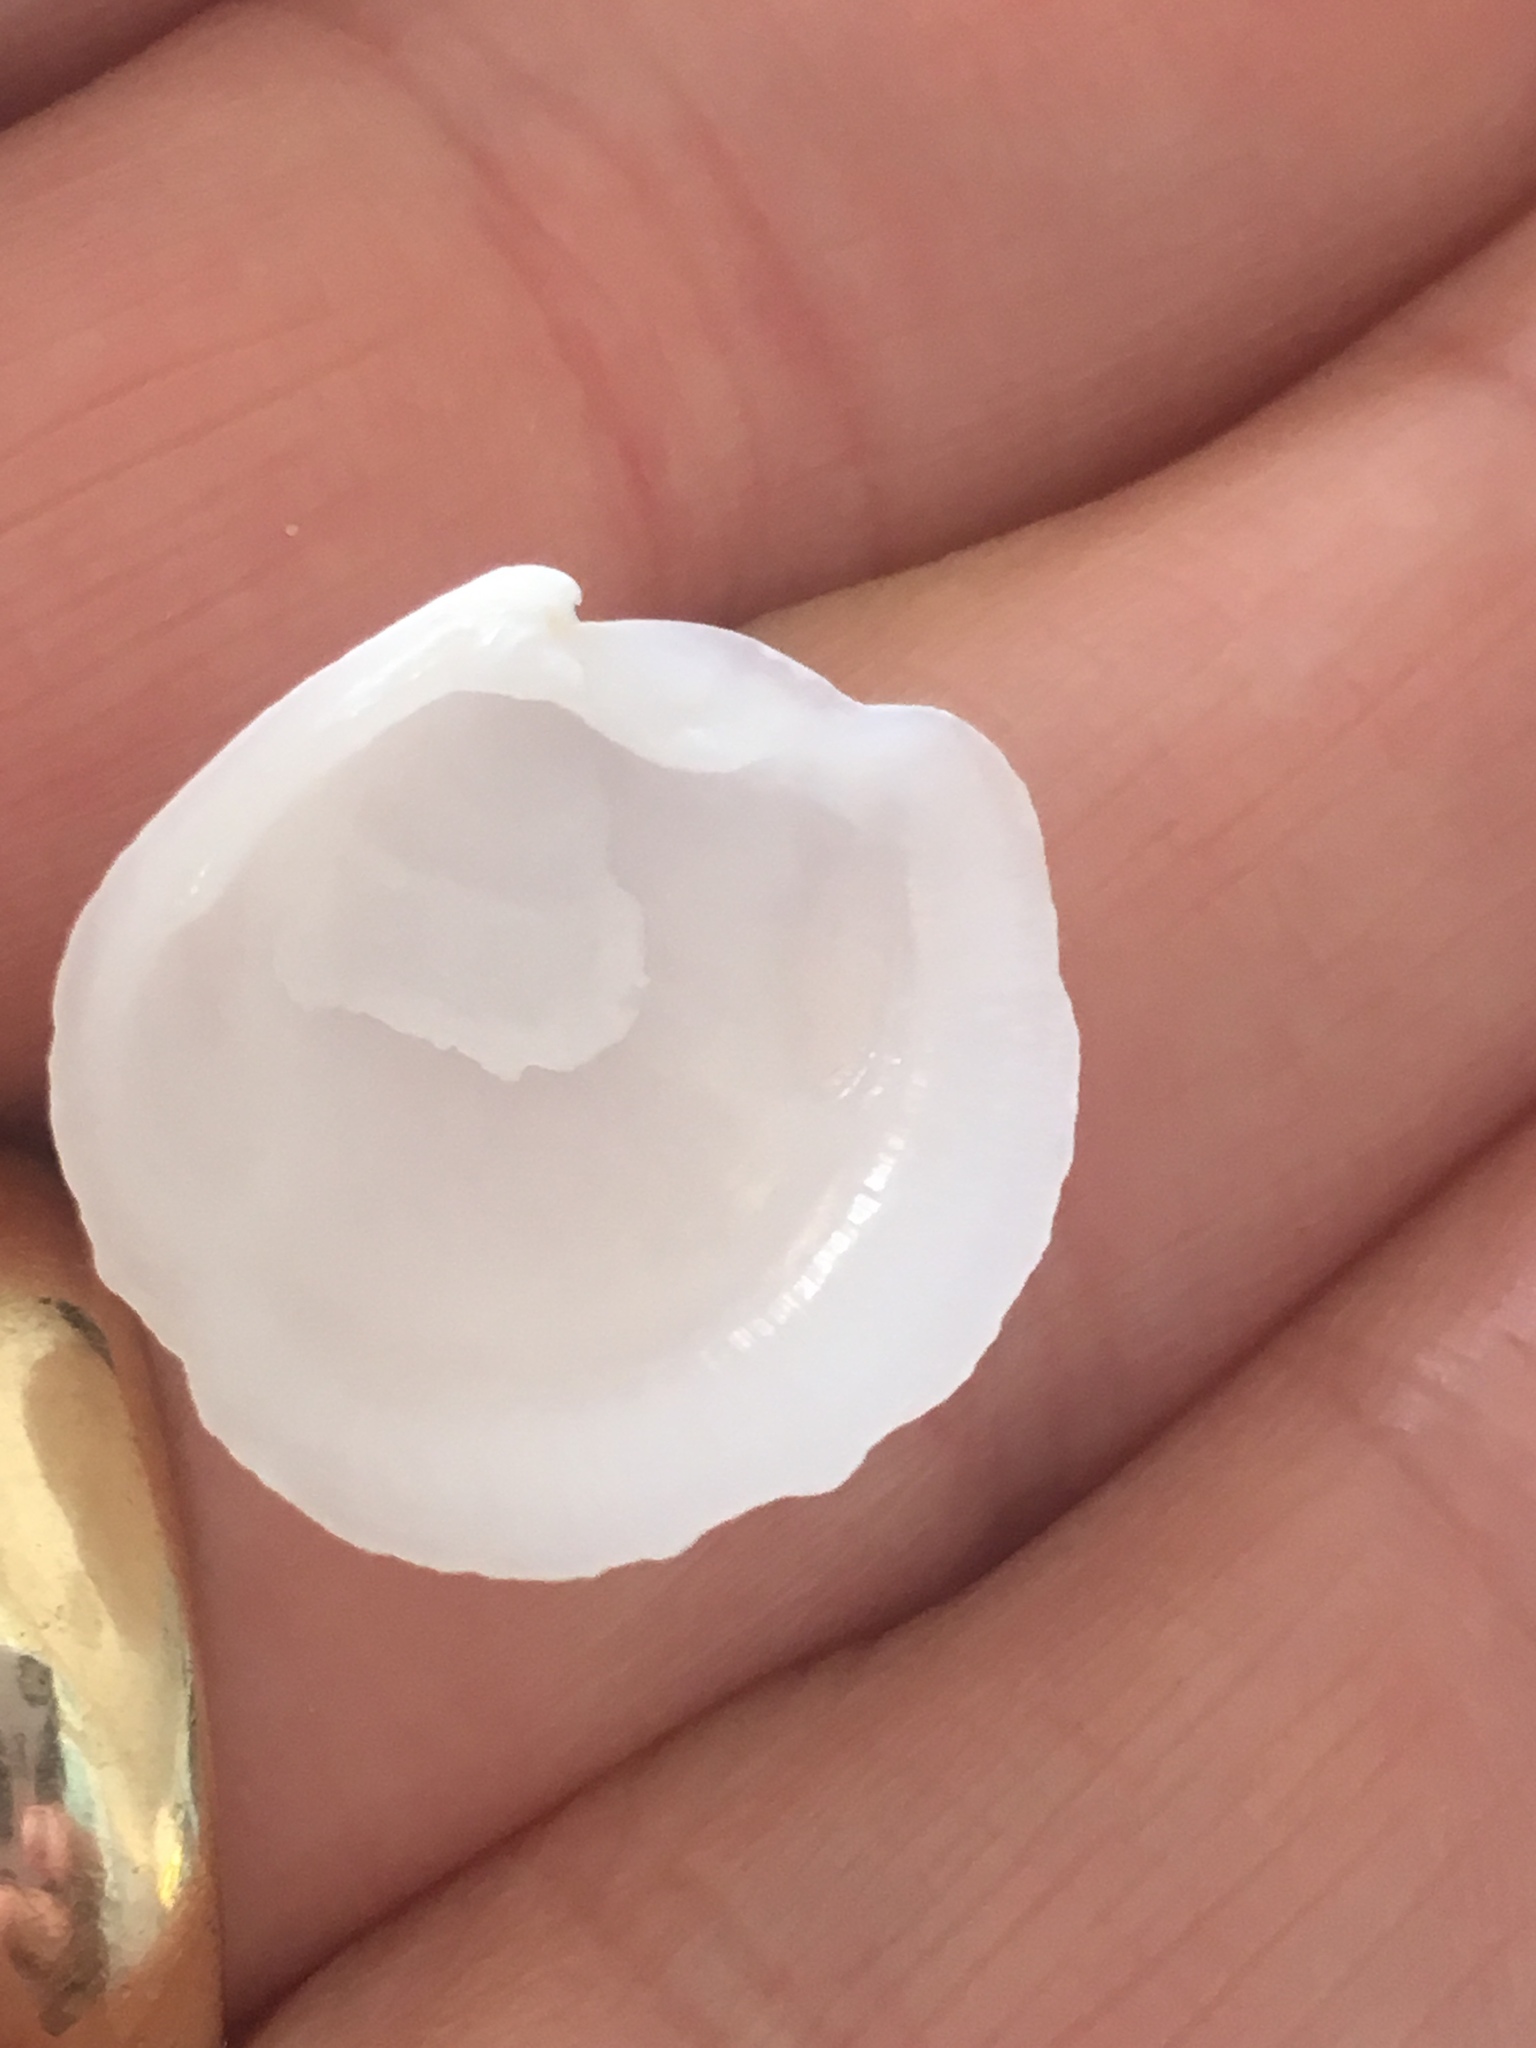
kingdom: Animalia
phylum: Mollusca
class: Bivalvia
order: Lucinida
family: Lucinidae
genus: Lucina
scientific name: Lucina pensylvanica
